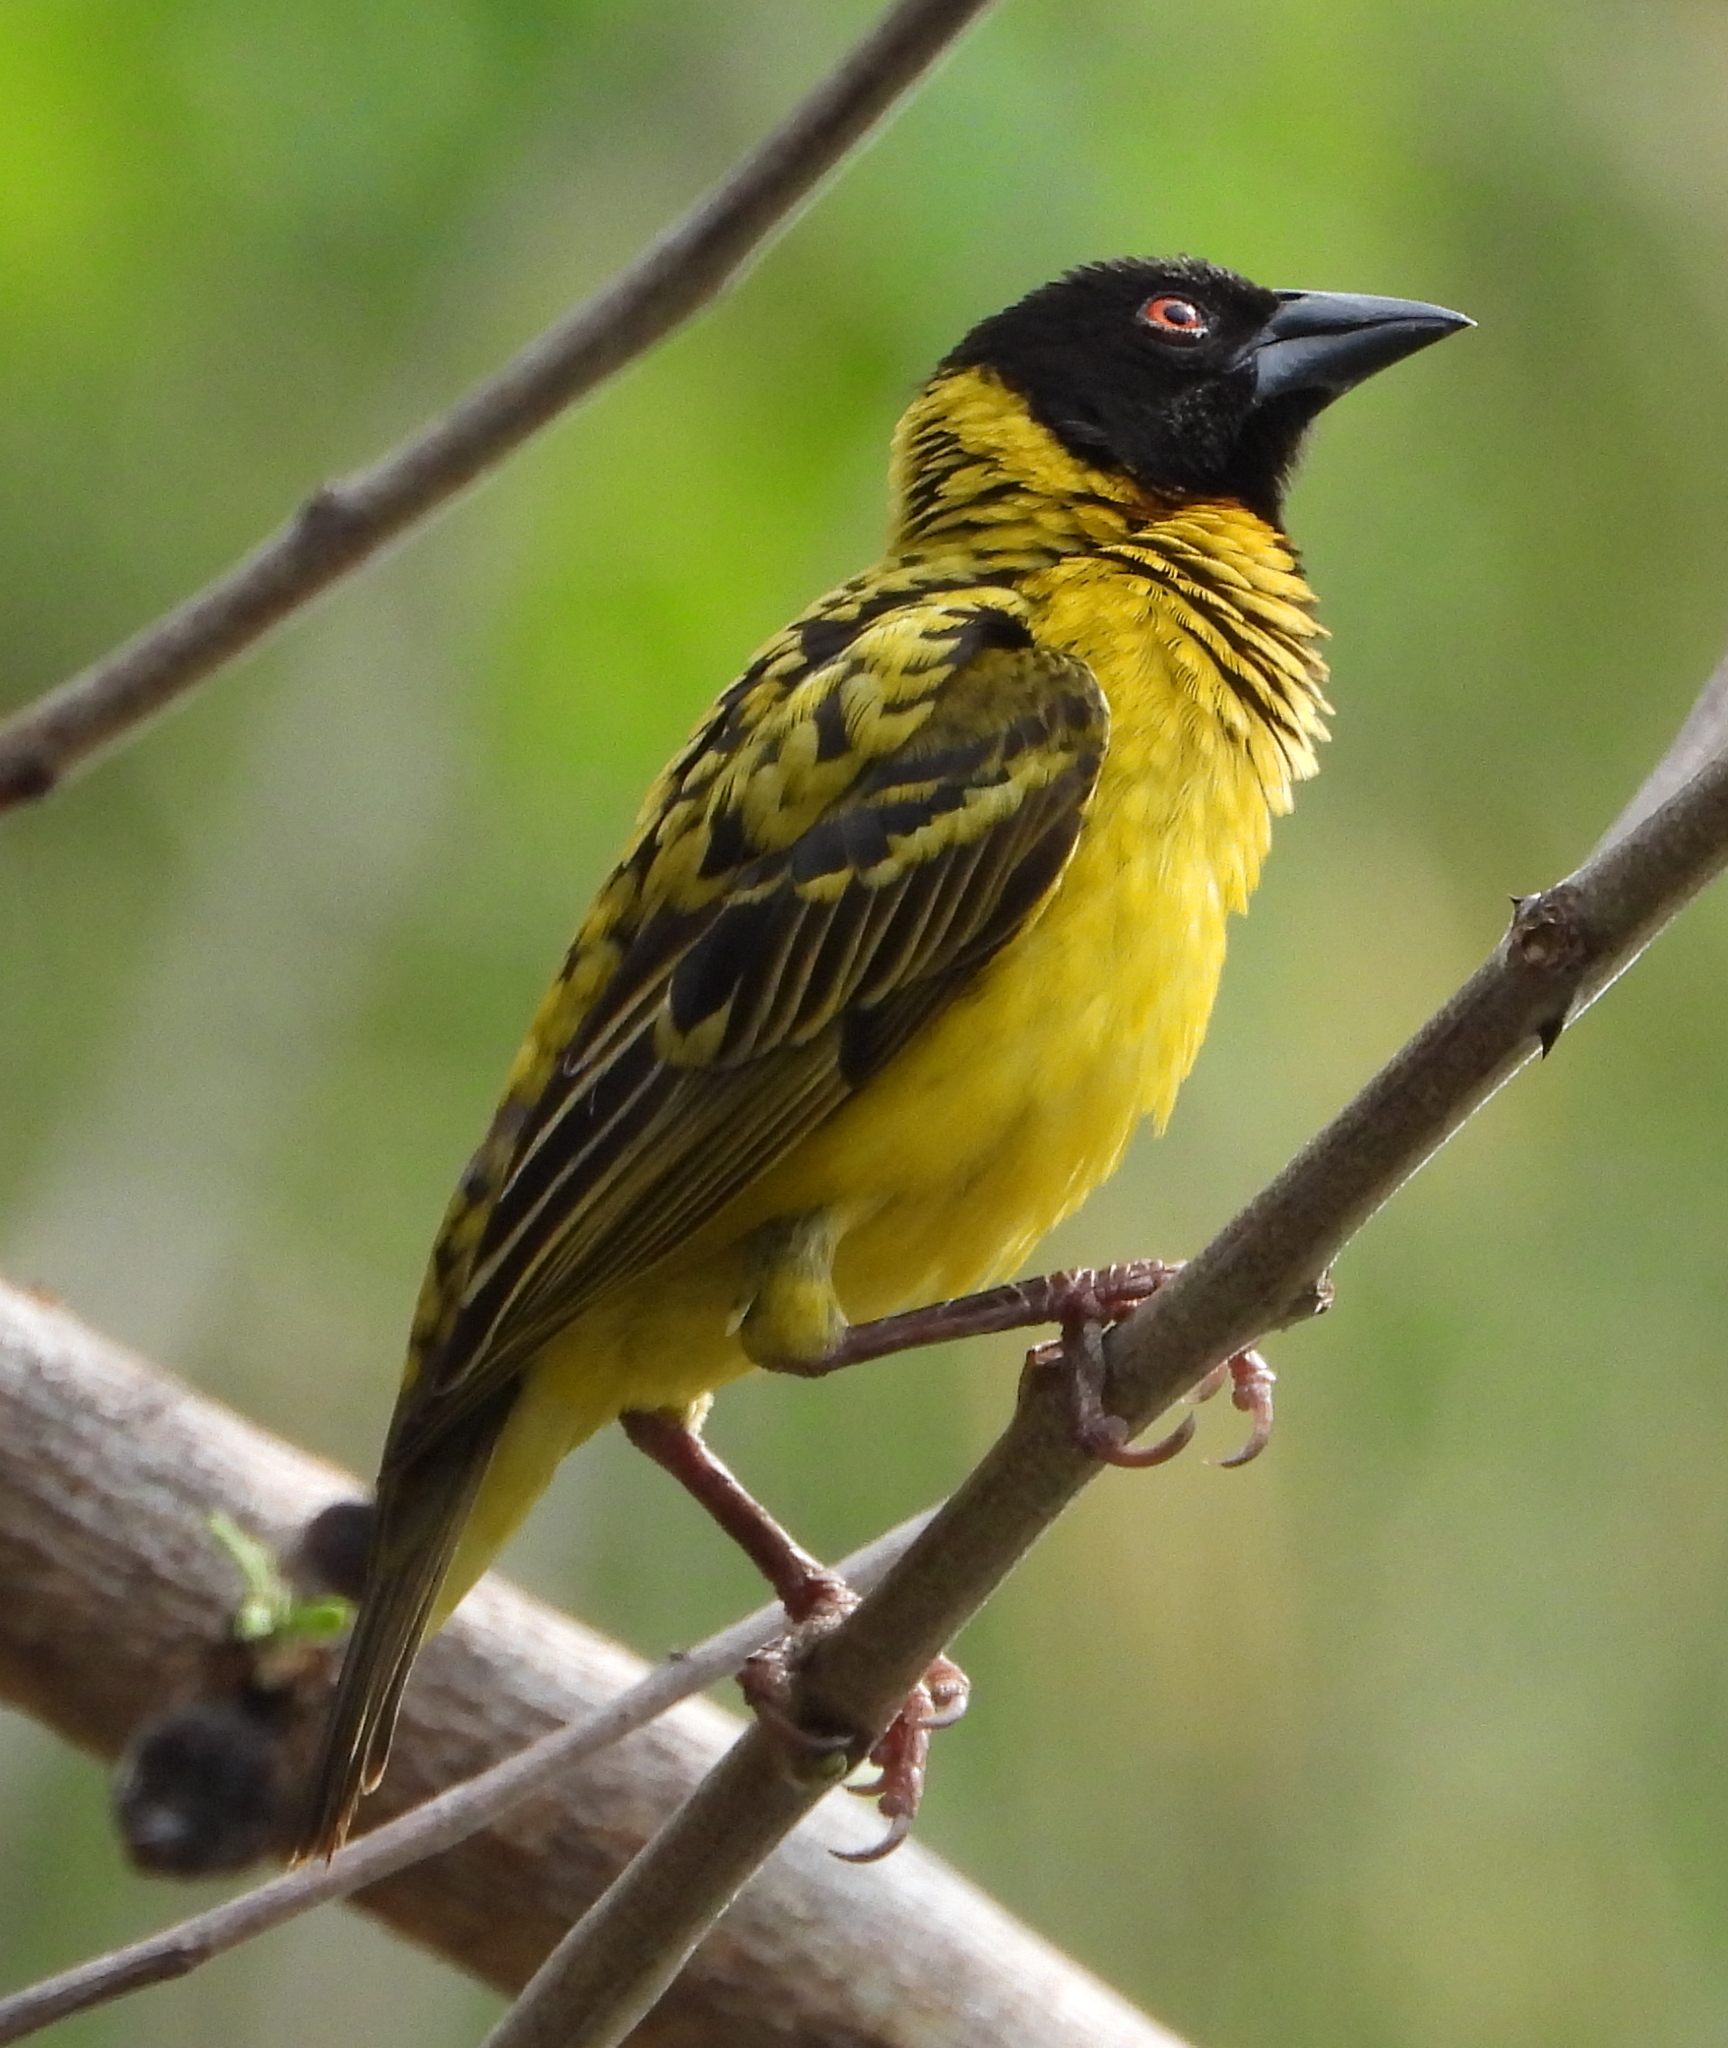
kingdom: Animalia
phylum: Chordata
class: Aves
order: Passeriformes
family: Ploceidae
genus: Ploceus
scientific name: Ploceus cucullatus
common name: Village weaver
